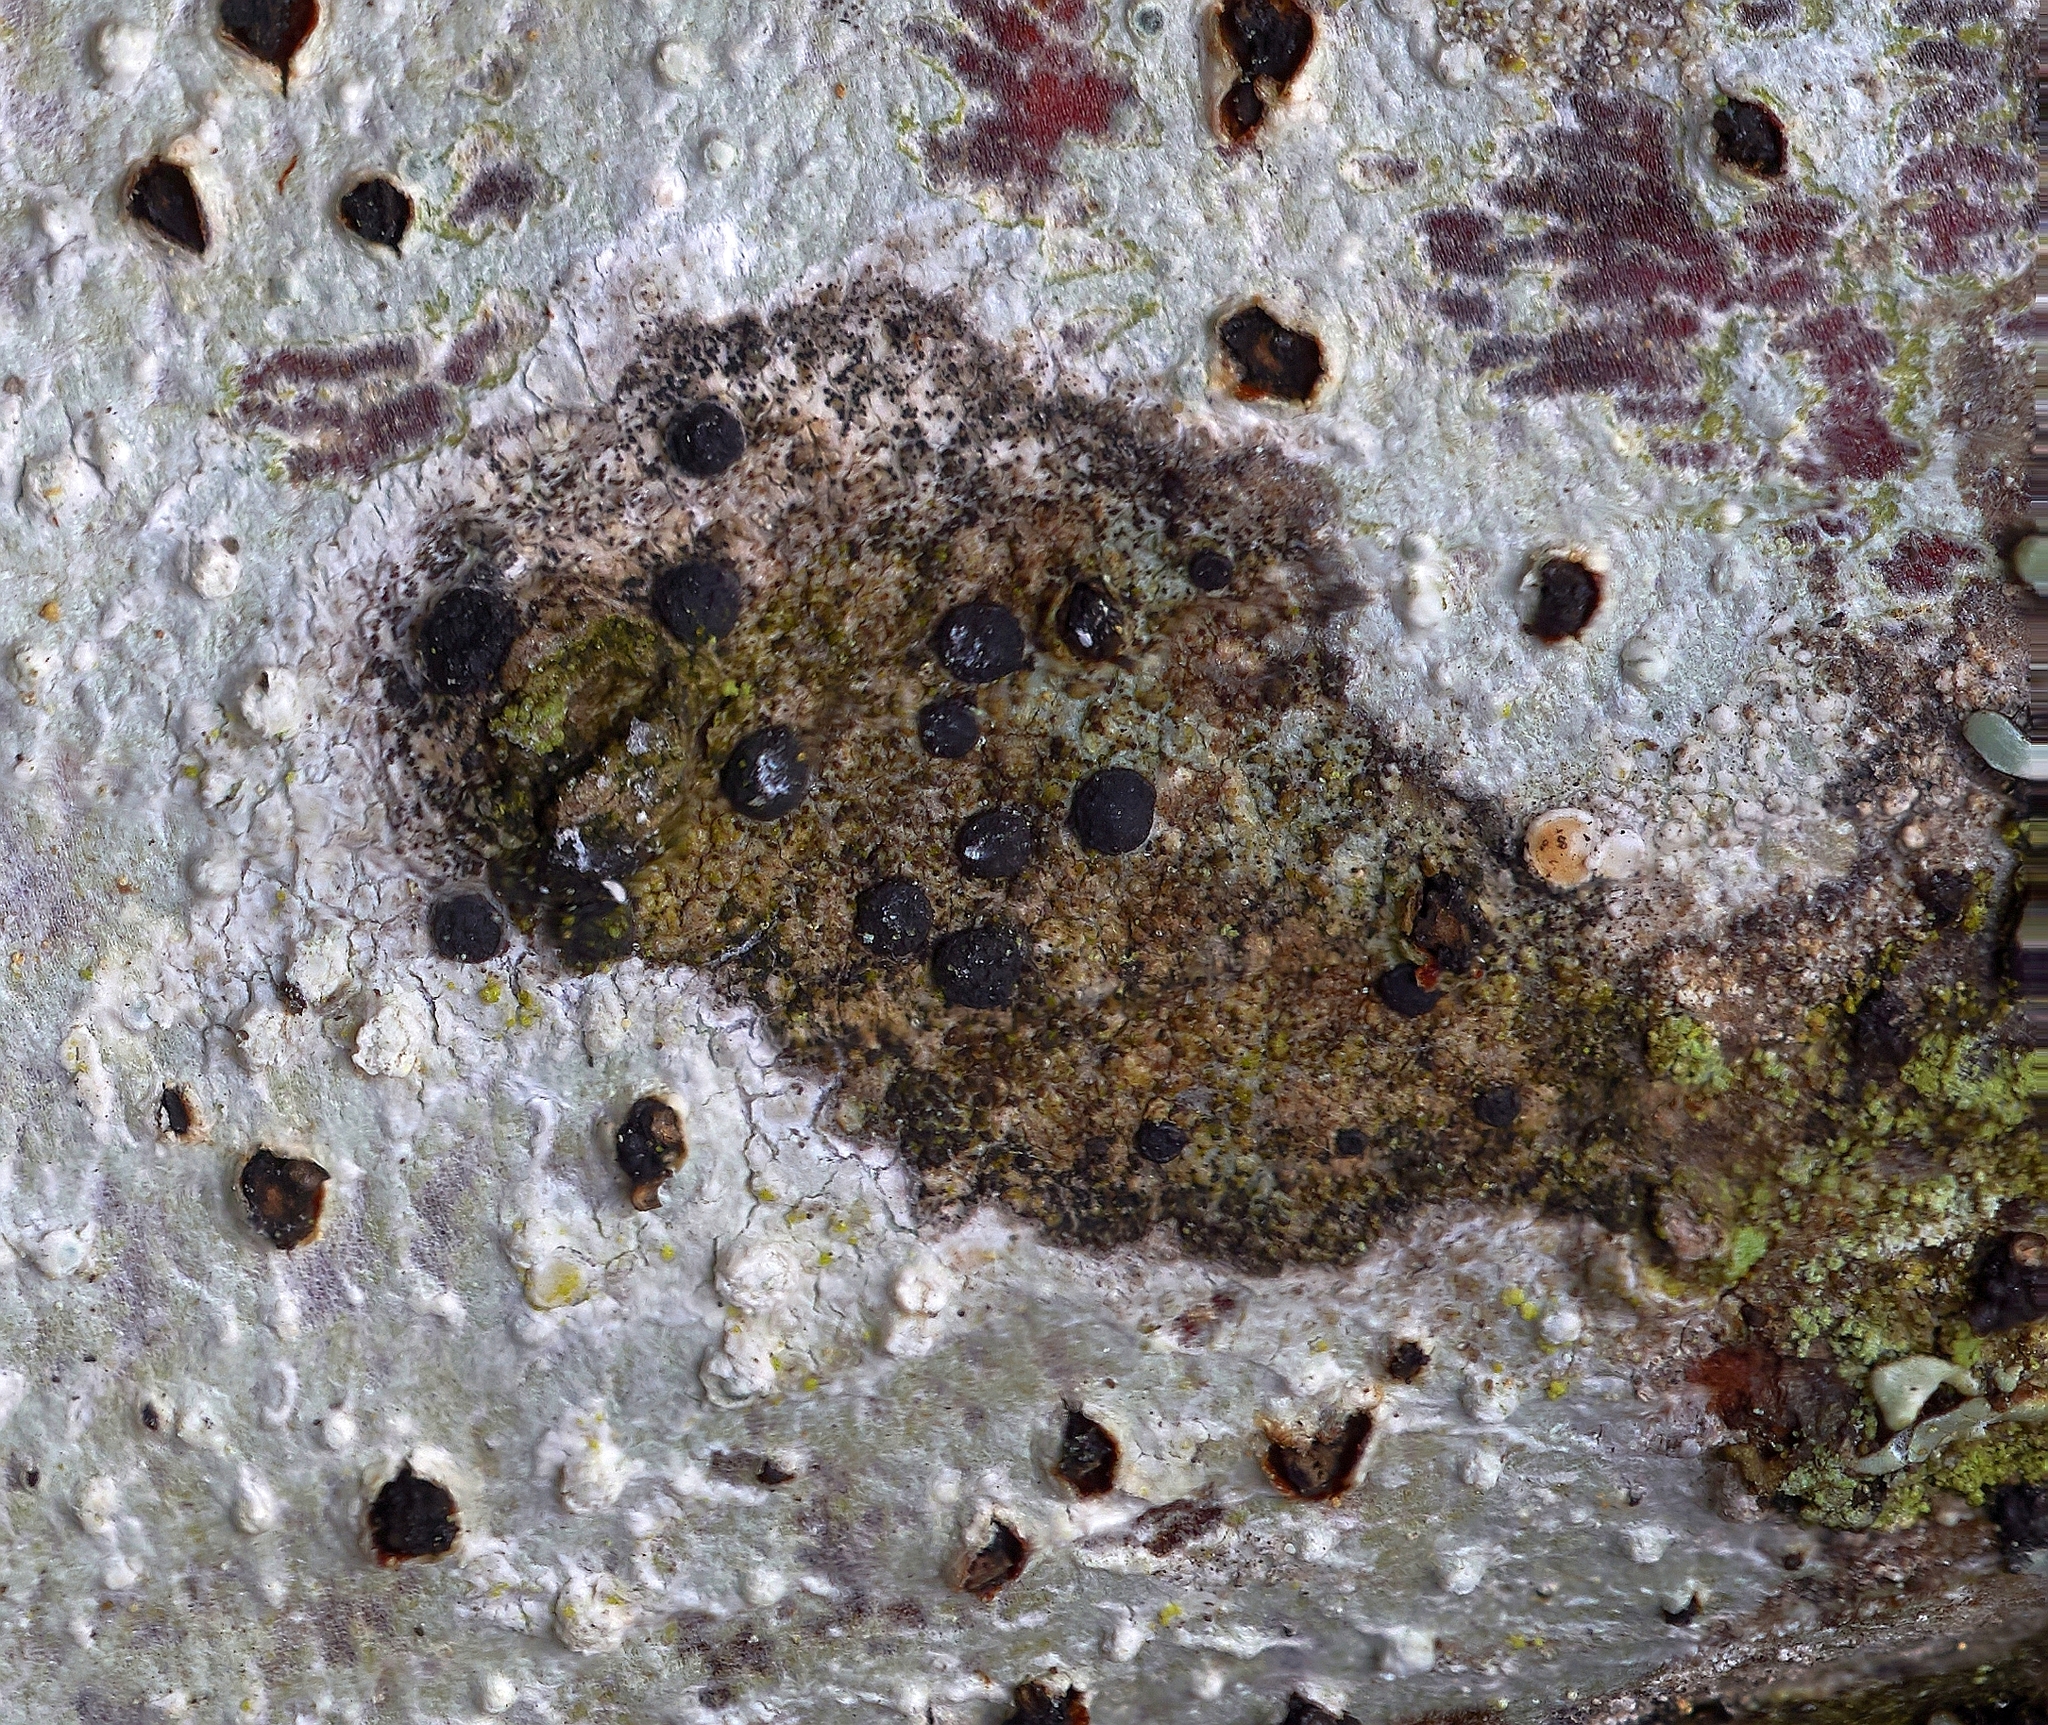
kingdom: Fungi
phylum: Ascomycota
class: Lecanoromycetes
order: Caliciales
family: Caliciaceae
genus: Amandinea
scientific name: Amandinea punctata
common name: Tiny button lichen
